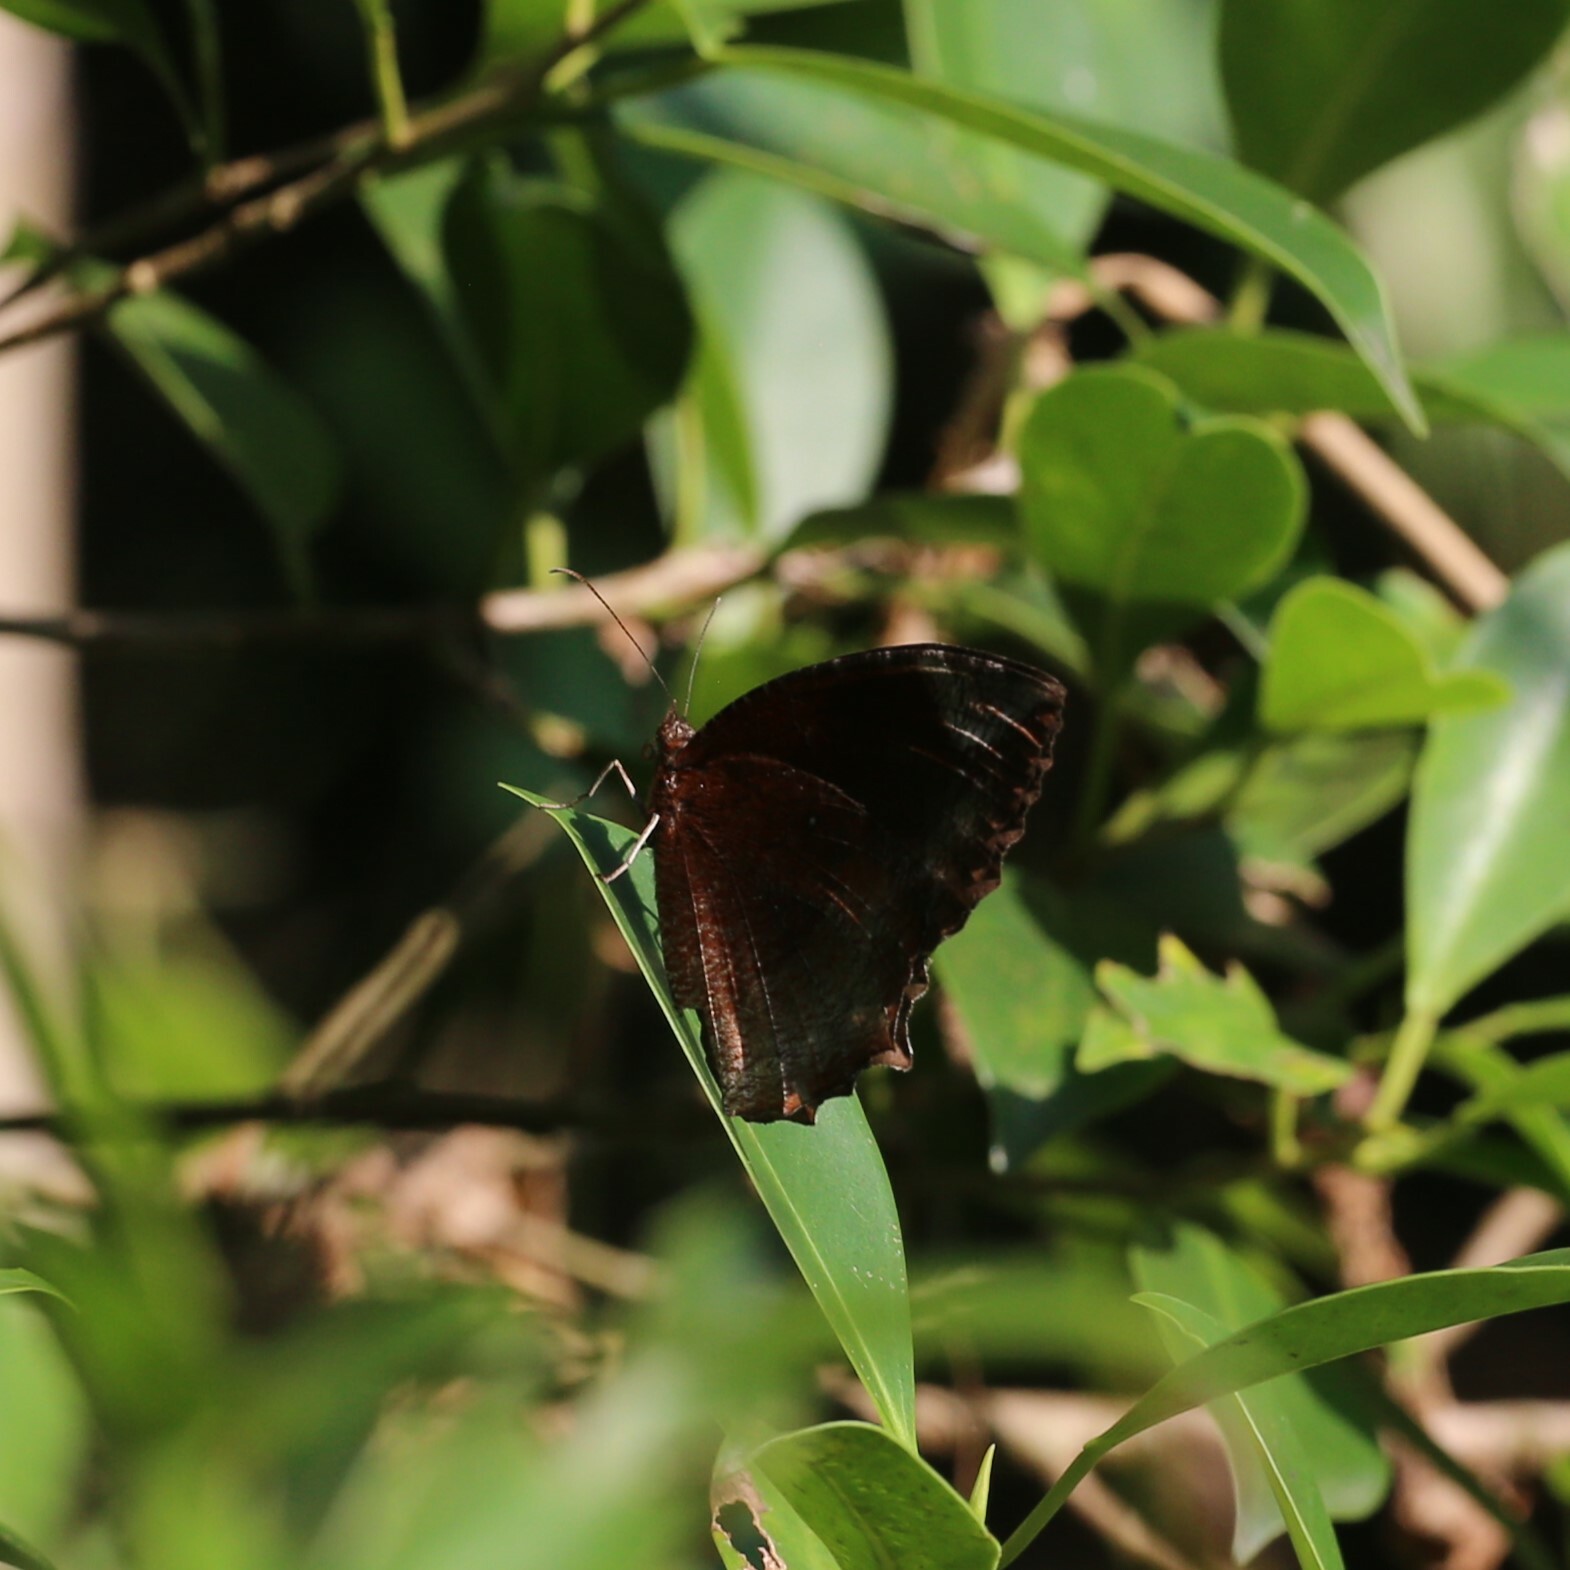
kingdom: Animalia
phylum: Arthropoda
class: Insecta
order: Lepidoptera
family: Nymphalidae
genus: Elymnias
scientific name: Elymnias hypermnestra
